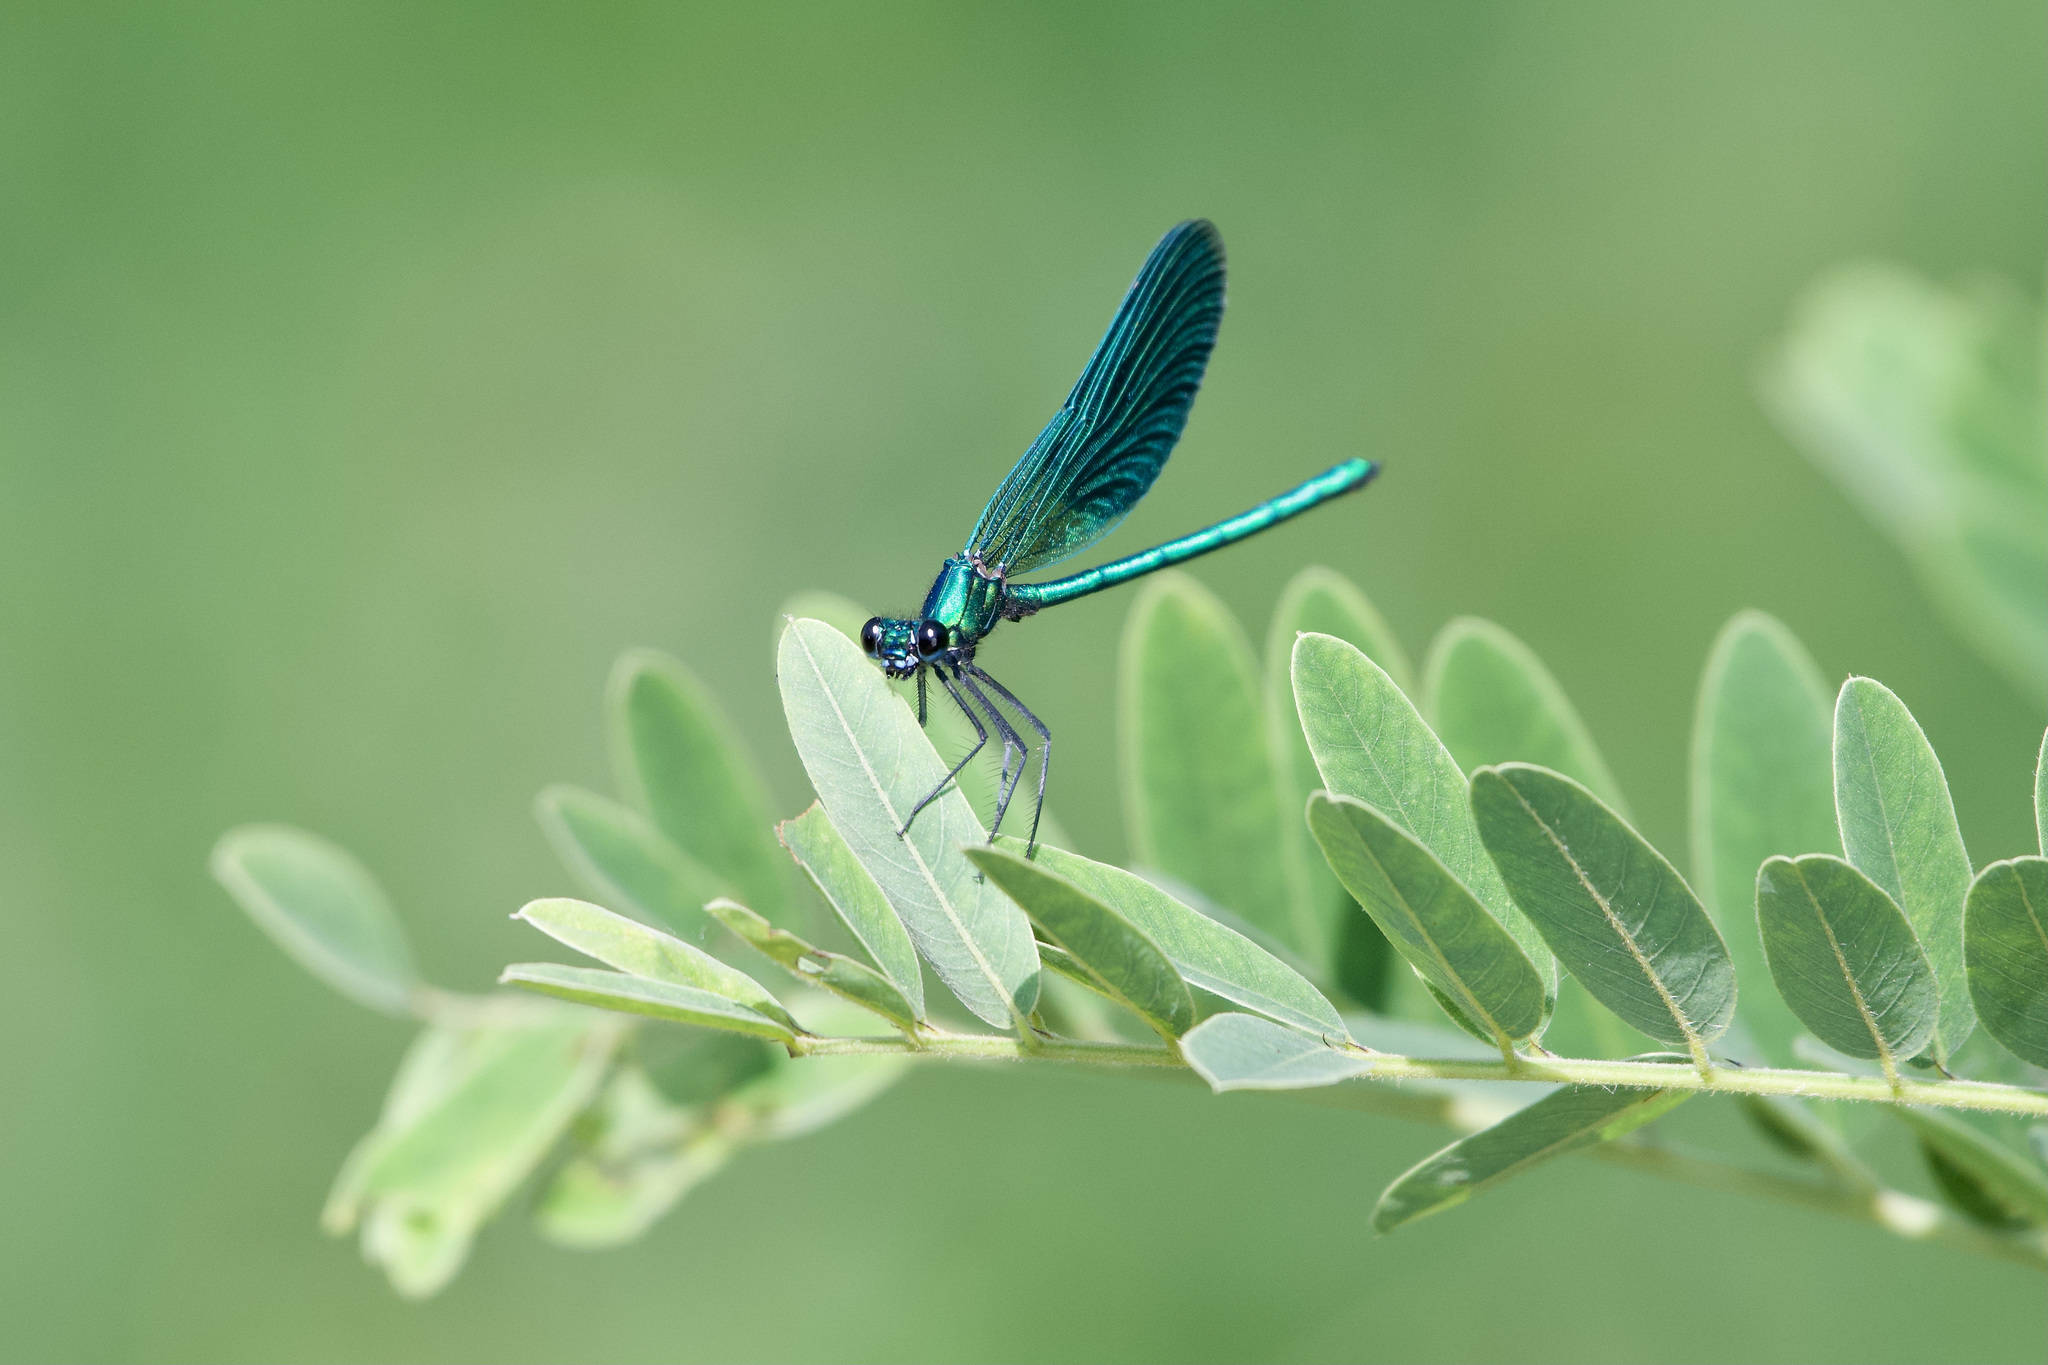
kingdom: Animalia
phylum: Arthropoda
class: Insecta
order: Odonata
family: Calopterygidae
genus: Calopteryx
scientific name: Calopteryx splendens
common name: Banded demoiselle
